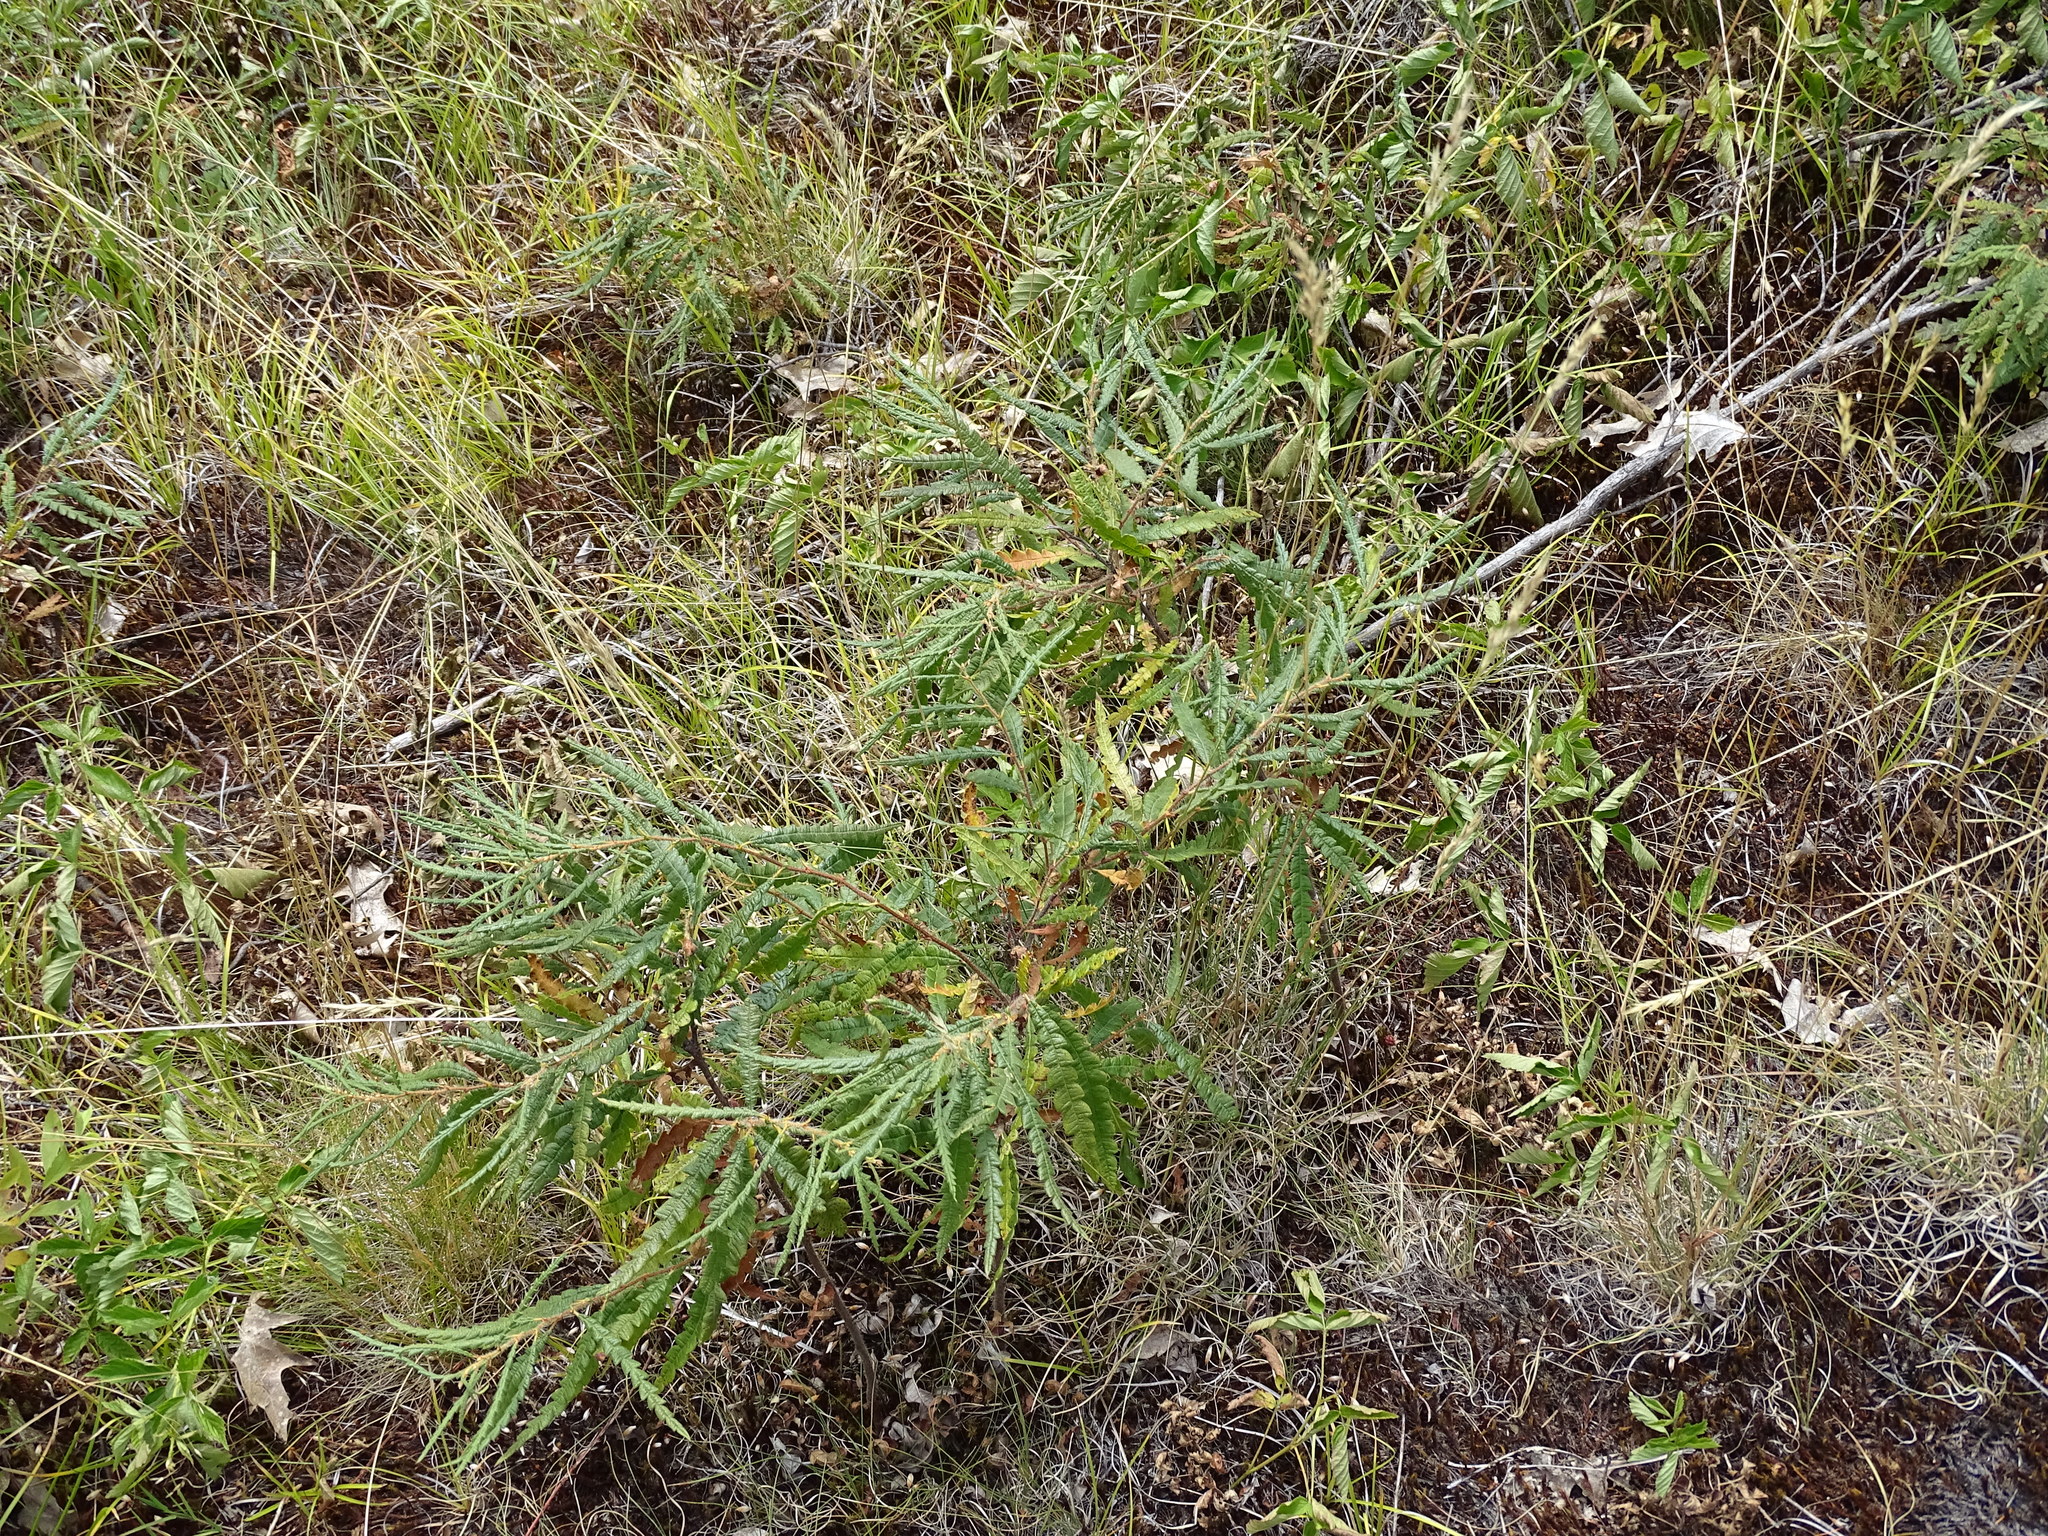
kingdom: Plantae
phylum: Tracheophyta
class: Magnoliopsida
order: Fagales
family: Myricaceae
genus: Comptonia
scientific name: Comptonia peregrina
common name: Sweet-fern
